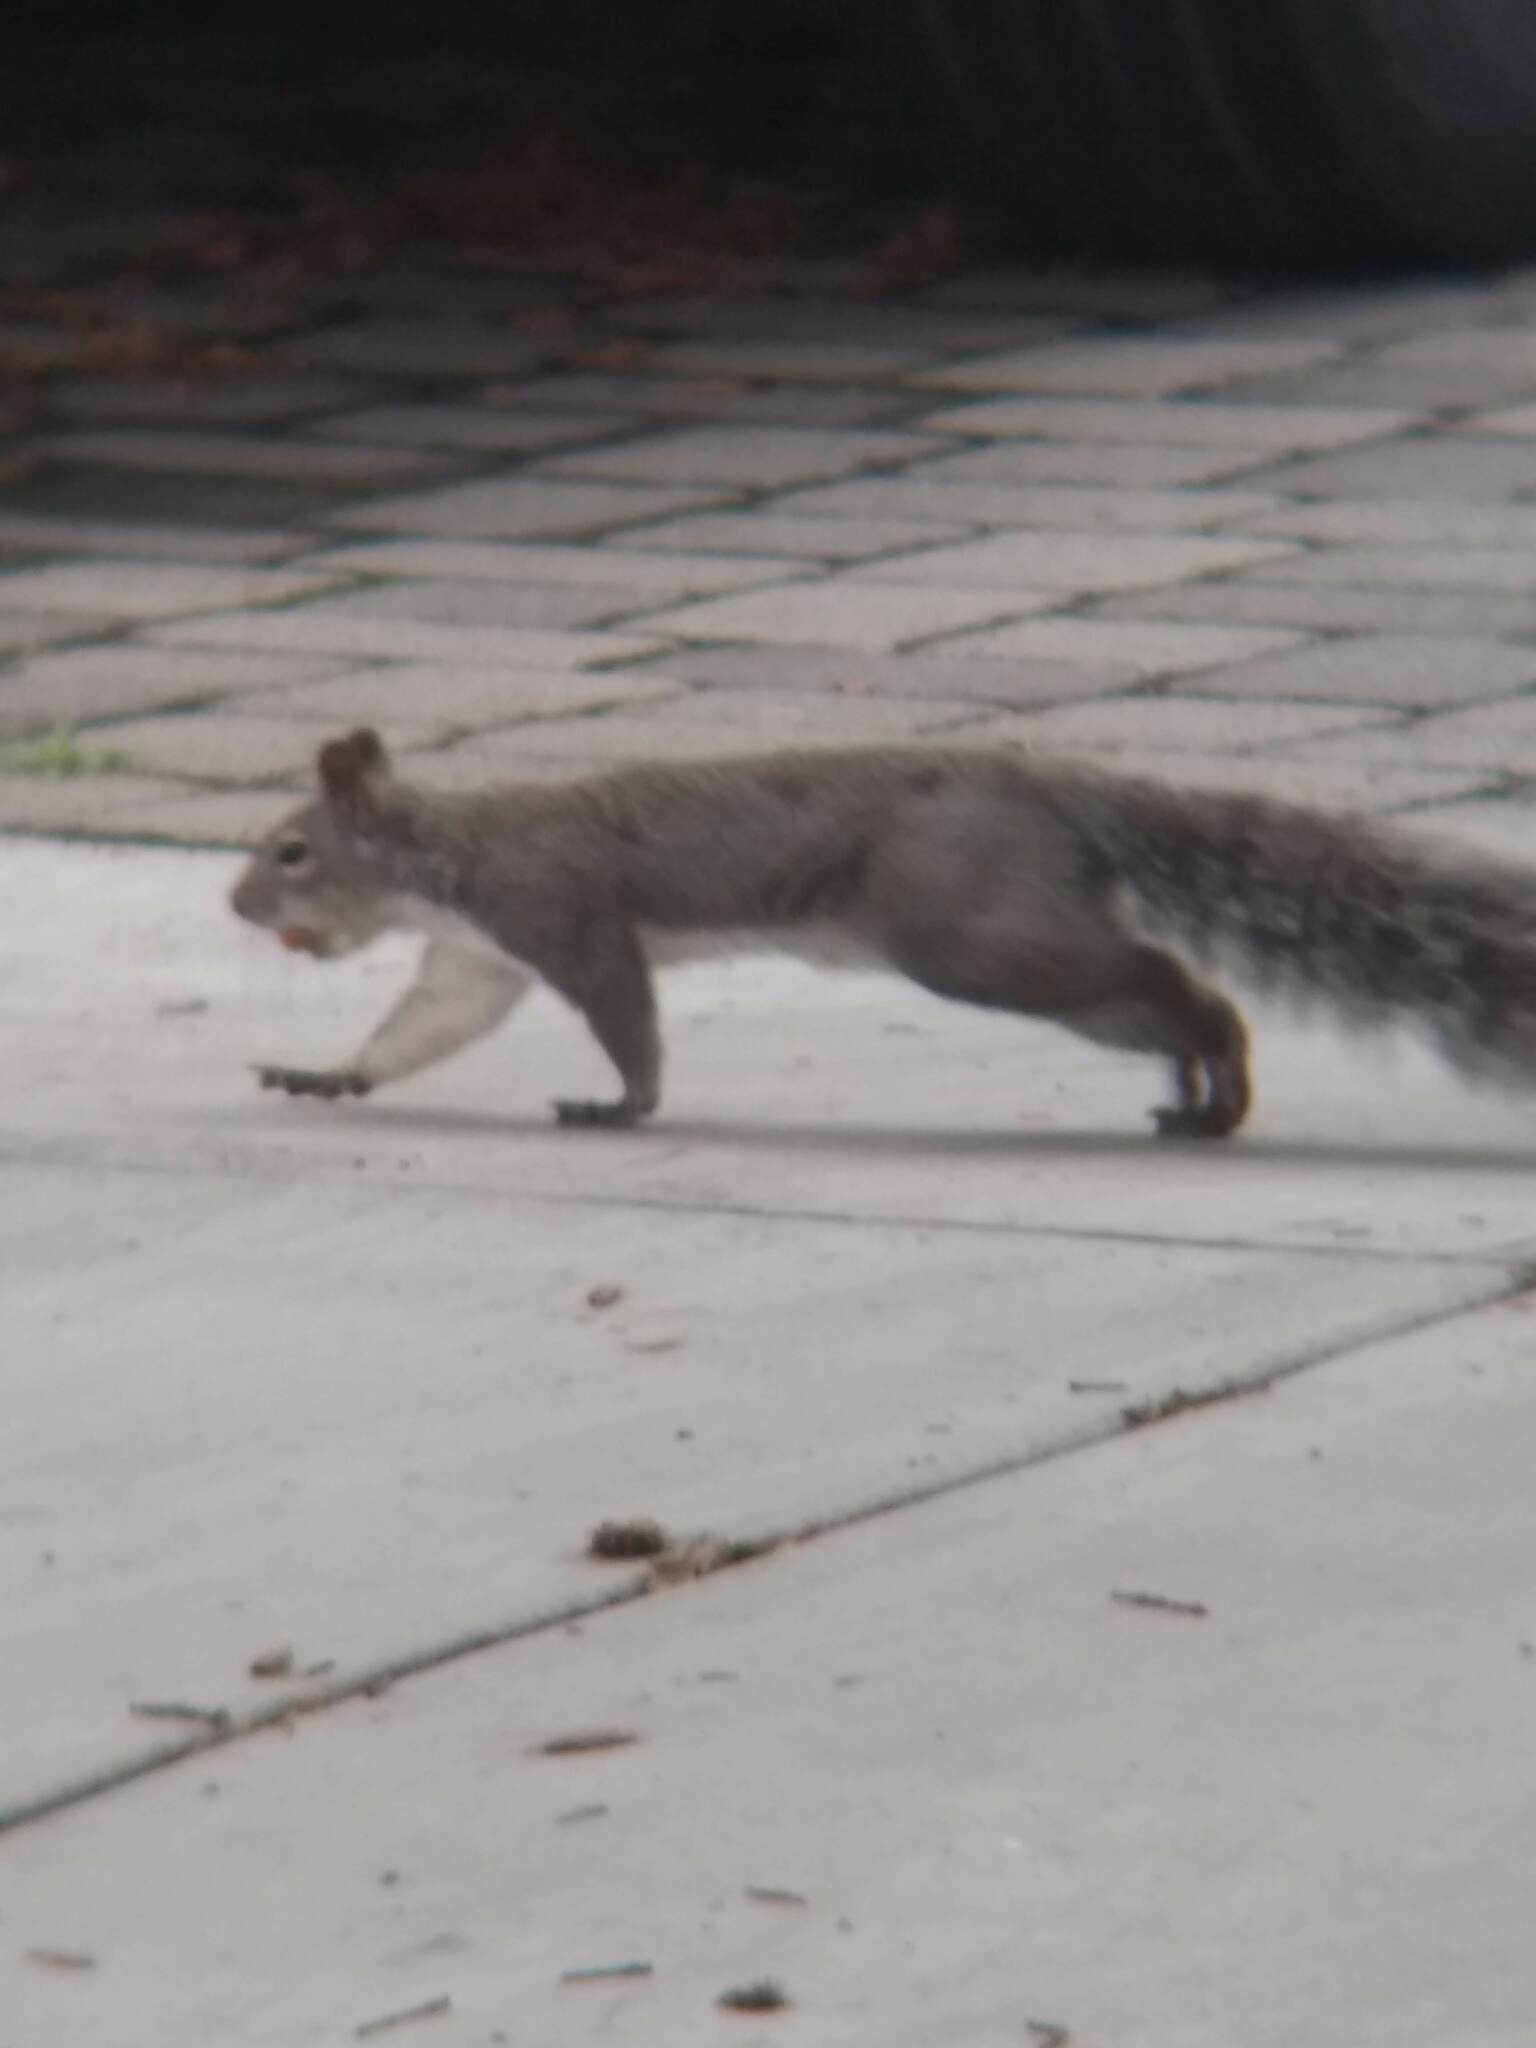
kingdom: Animalia
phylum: Chordata
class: Mammalia
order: Rodentia
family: Sciuridae
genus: Sciurus
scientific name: Sciurus griseus
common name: Western gray squirrel
